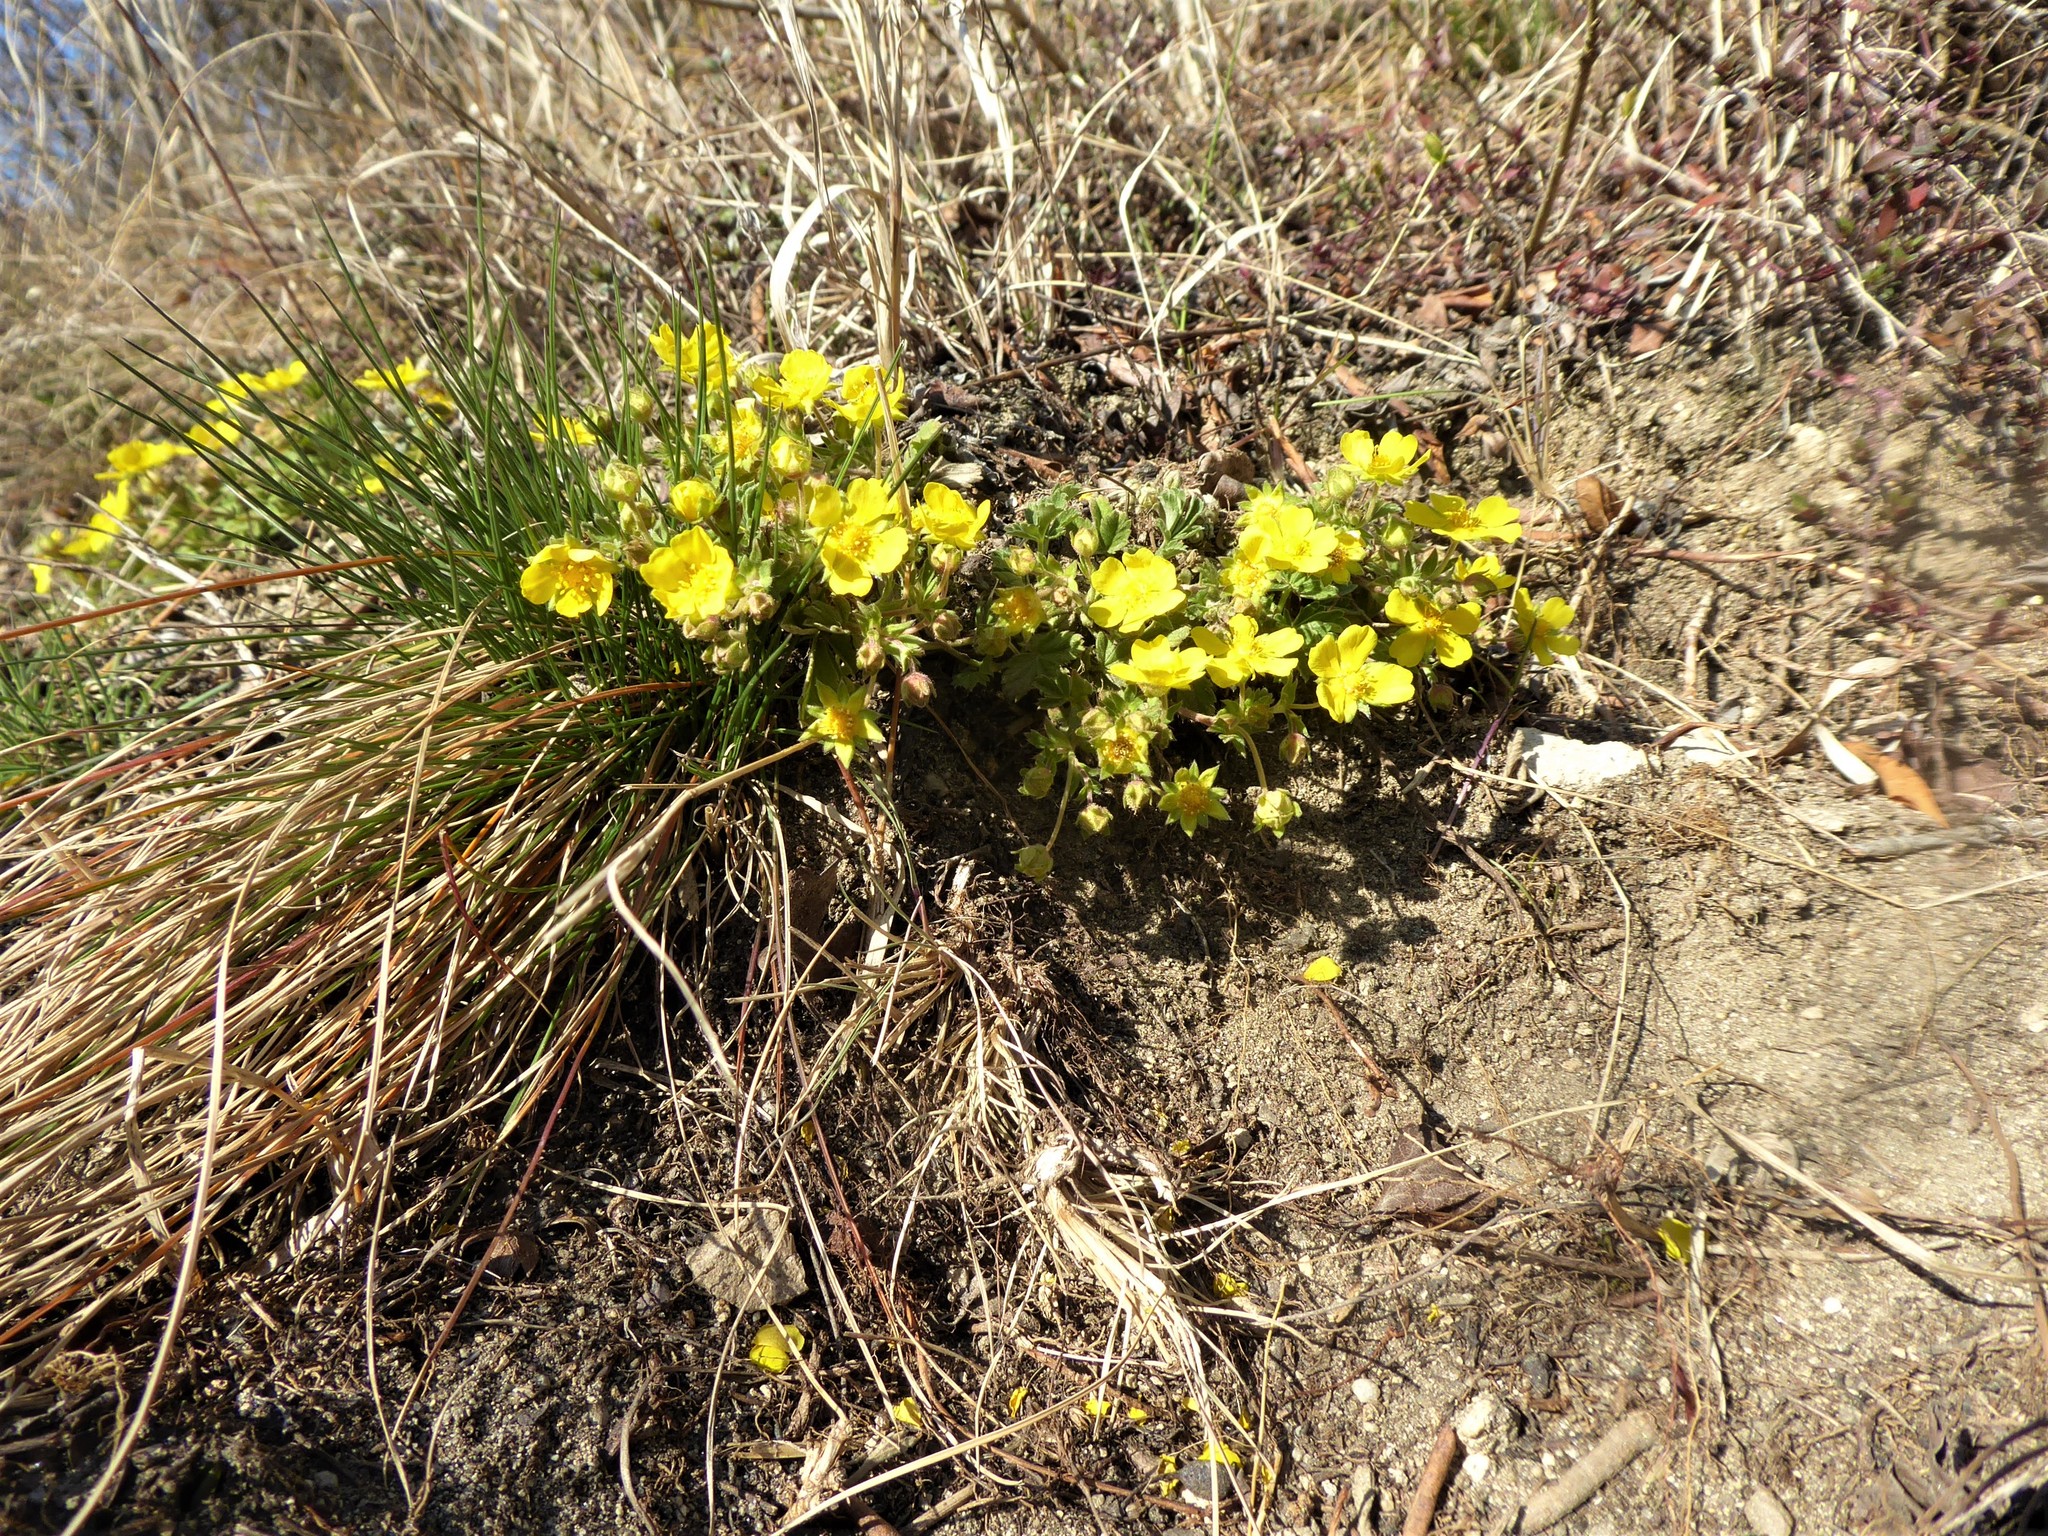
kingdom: Plantae
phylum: Tracheophyta
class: Magnoliopsida
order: Rosales
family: Rosaceae
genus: Potentilla
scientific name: Potentilla incana
